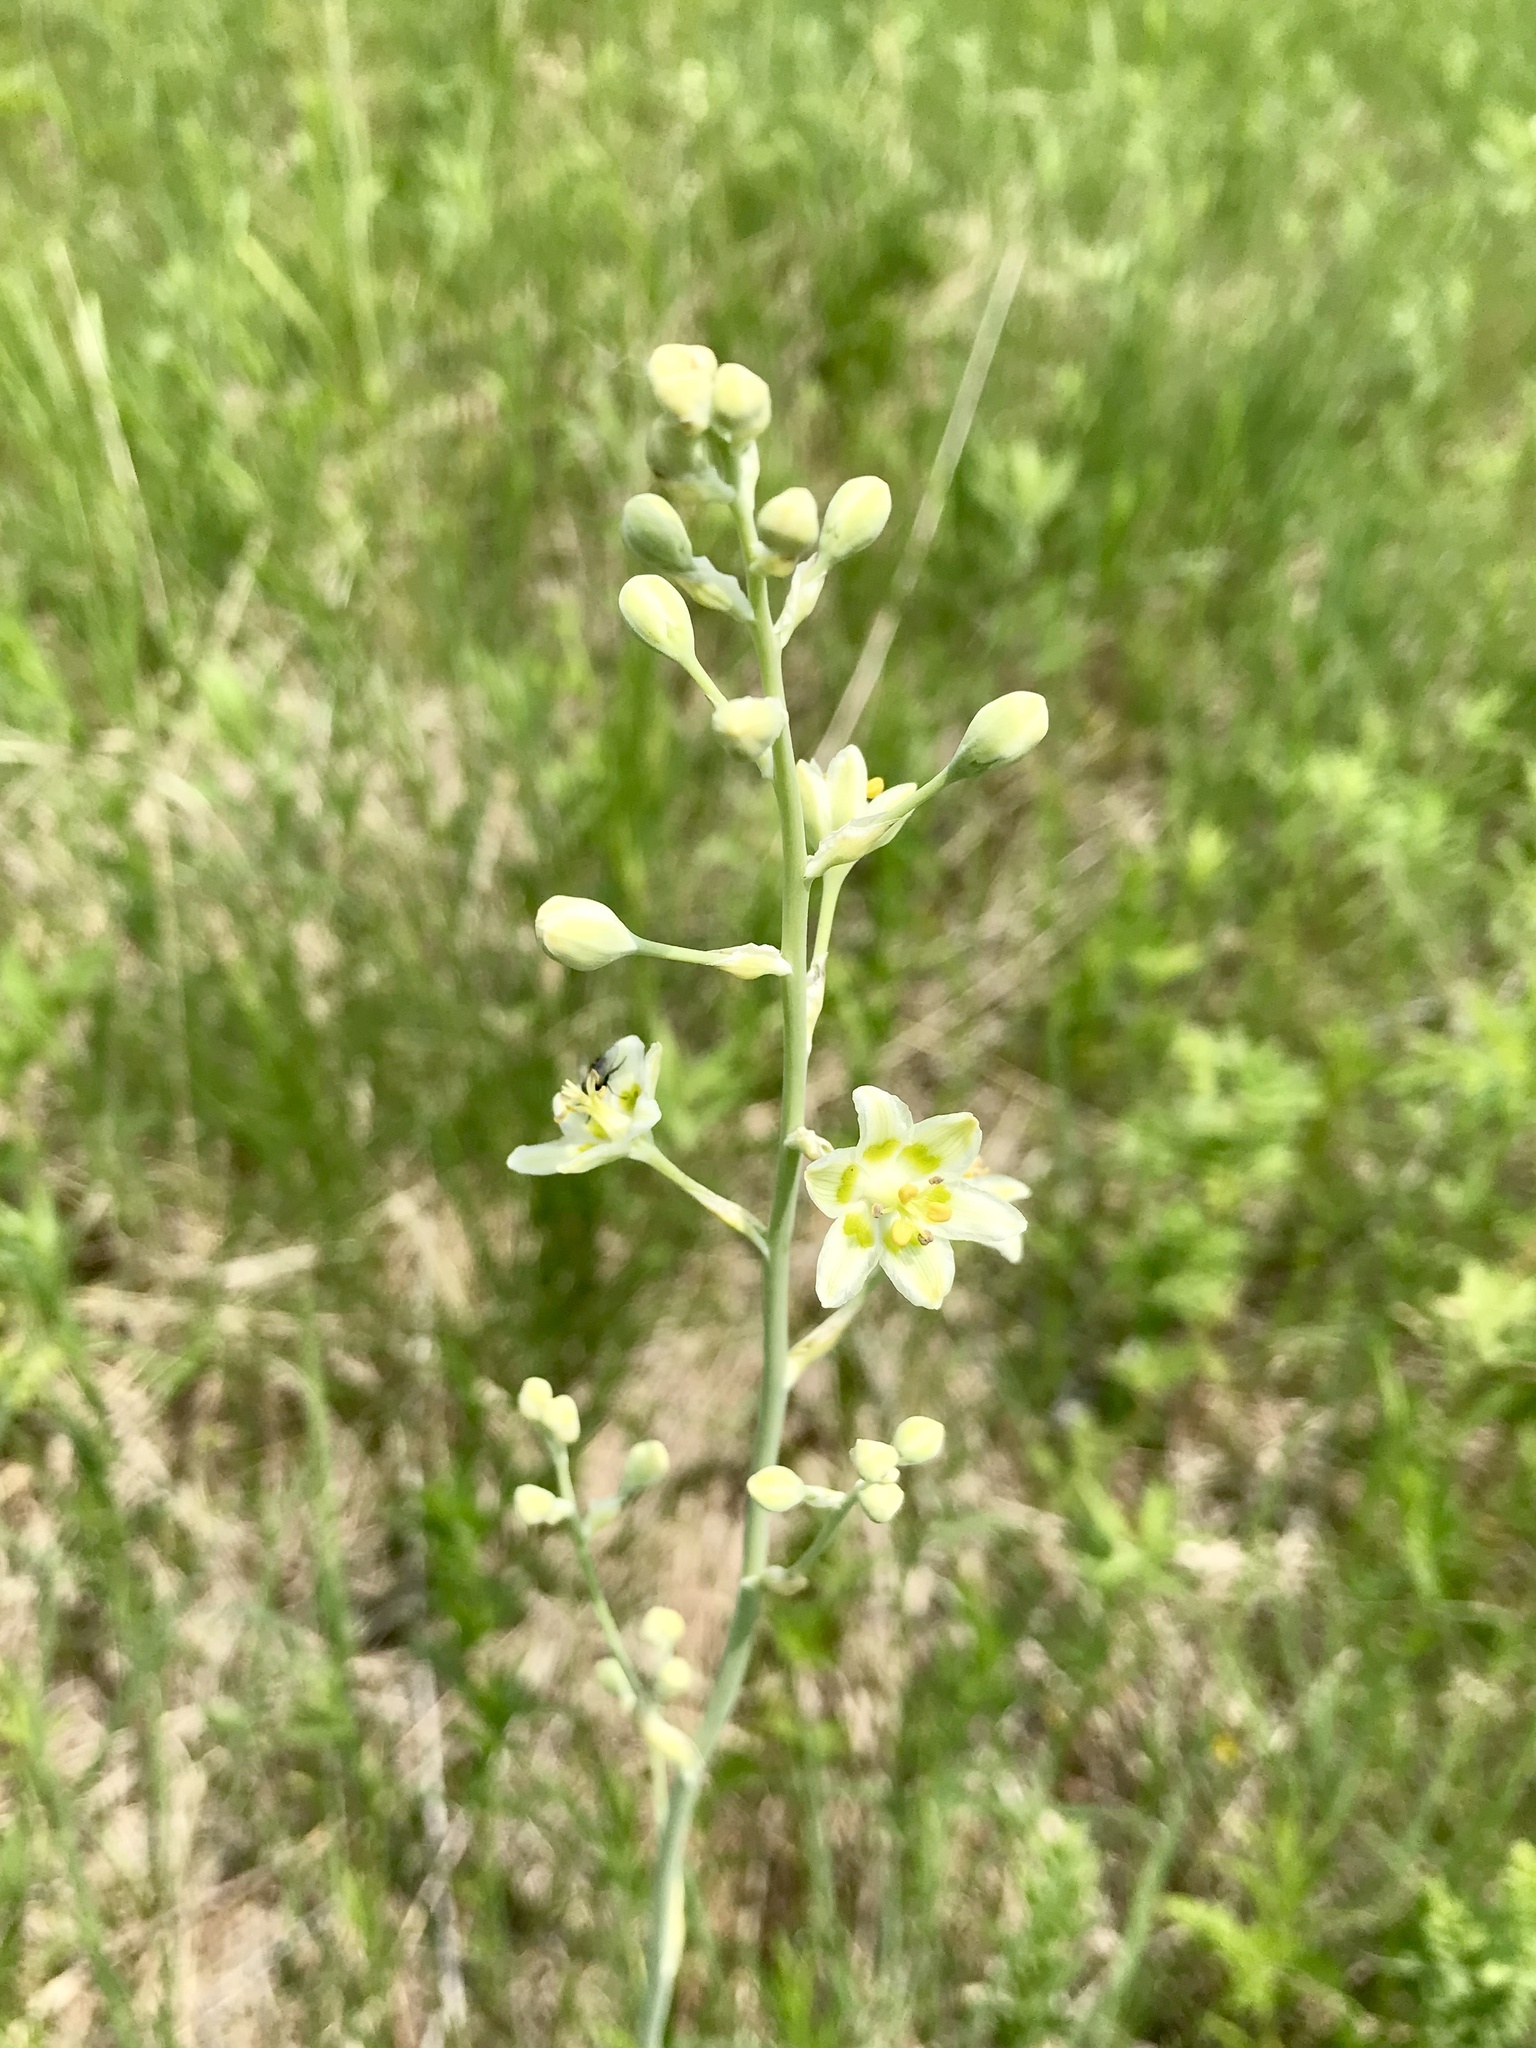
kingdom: Plantae
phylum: Tracheophyta
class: Liliopsida
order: Liliales
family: Melanthiaceae
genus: Anticlea
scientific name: Anticlea elegans
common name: Mountain death camas
